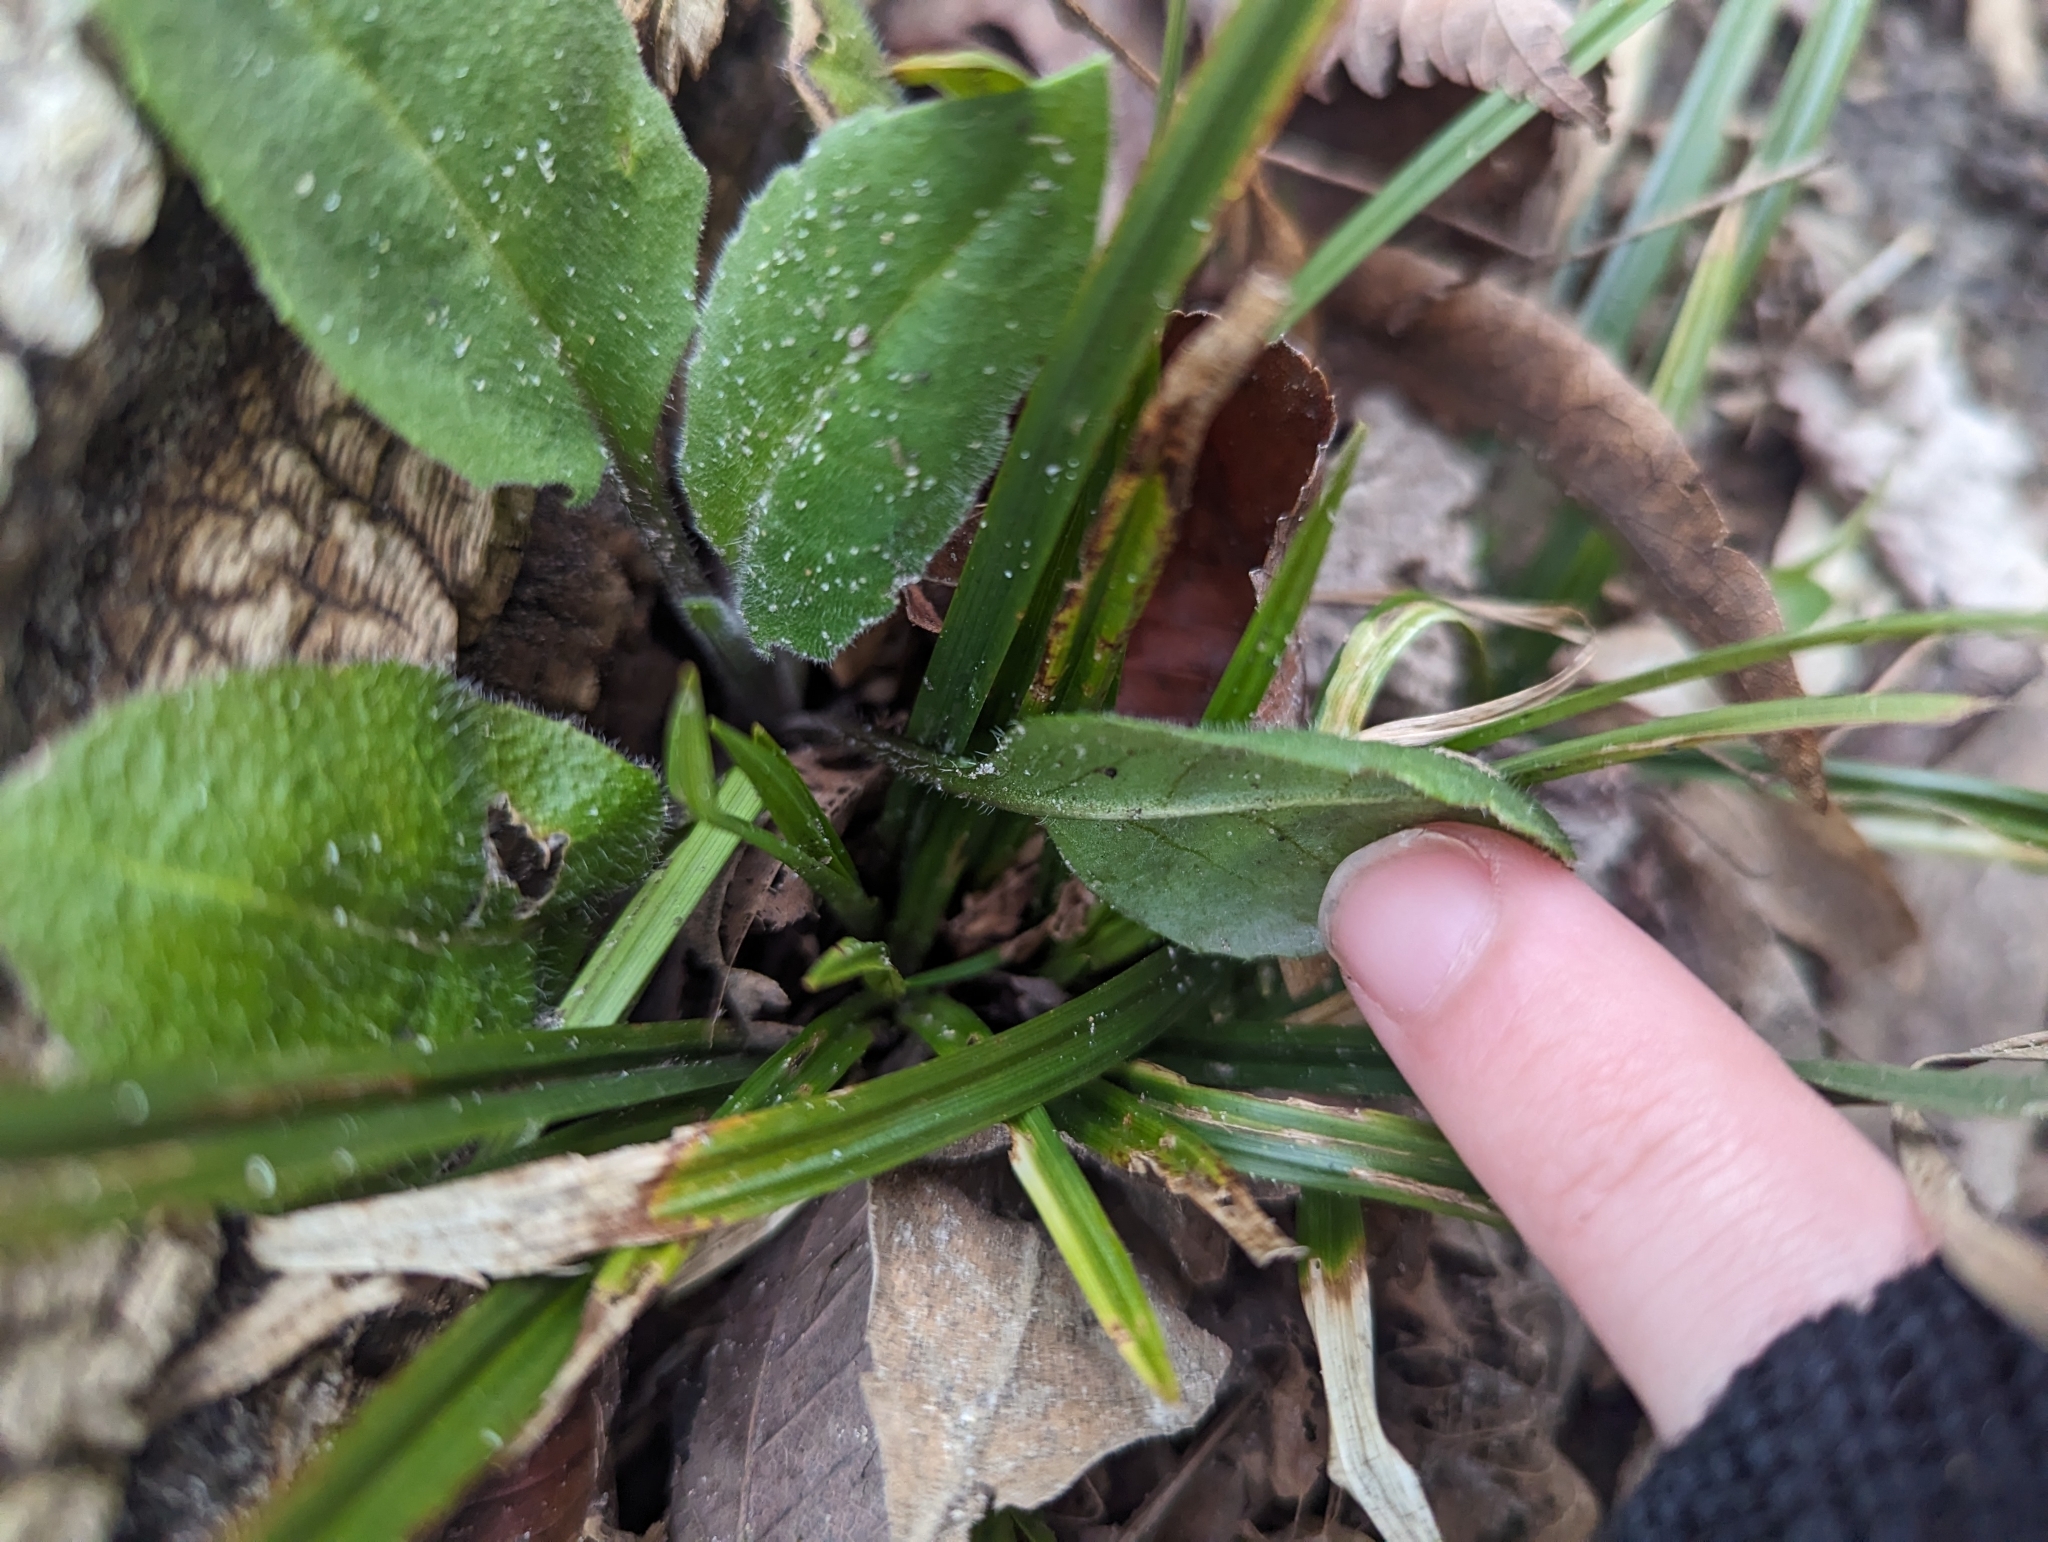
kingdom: Plantae
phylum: Tracheophyta
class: Magnoliopsida
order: Brassicales
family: Brassicaceae
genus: Hesperis
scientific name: Hesperis matronalis
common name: Dame's-violet
